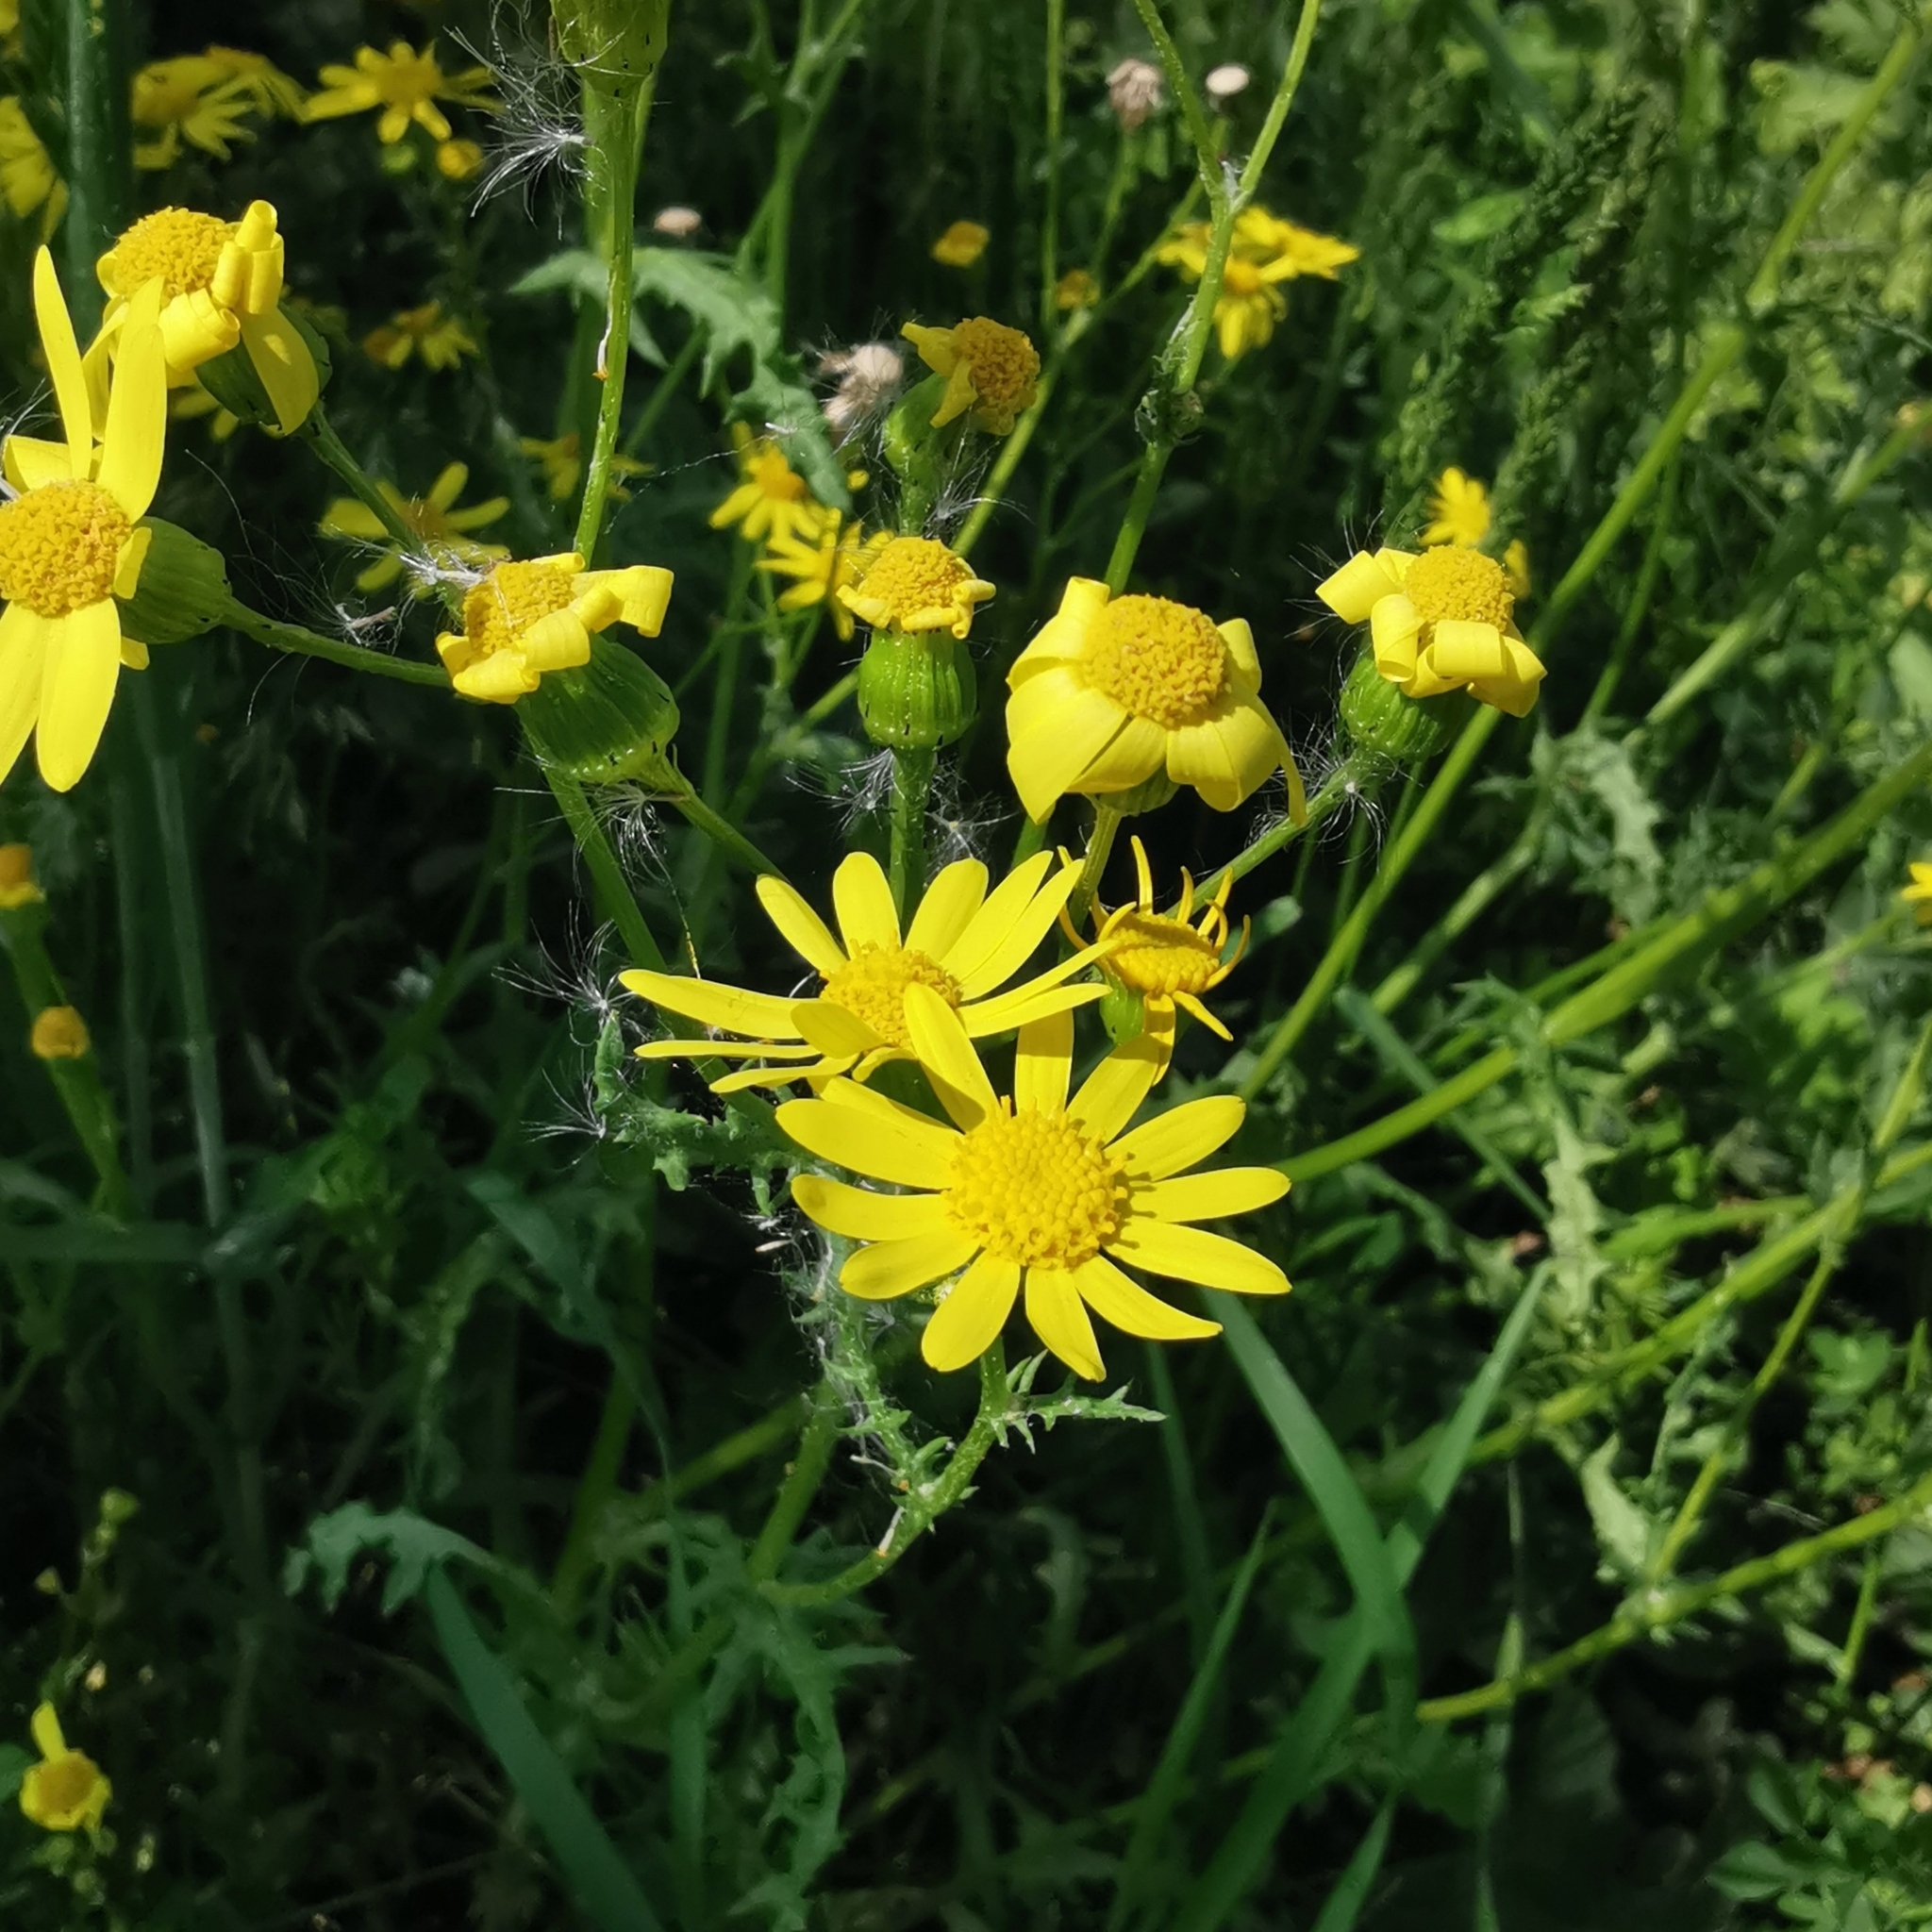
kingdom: Plantae
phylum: Tracheophyta
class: Magnoliopsida
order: Asterales
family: Asteraceae
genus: Senecio
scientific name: Senecio vernalis
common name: Eastern groundsel
